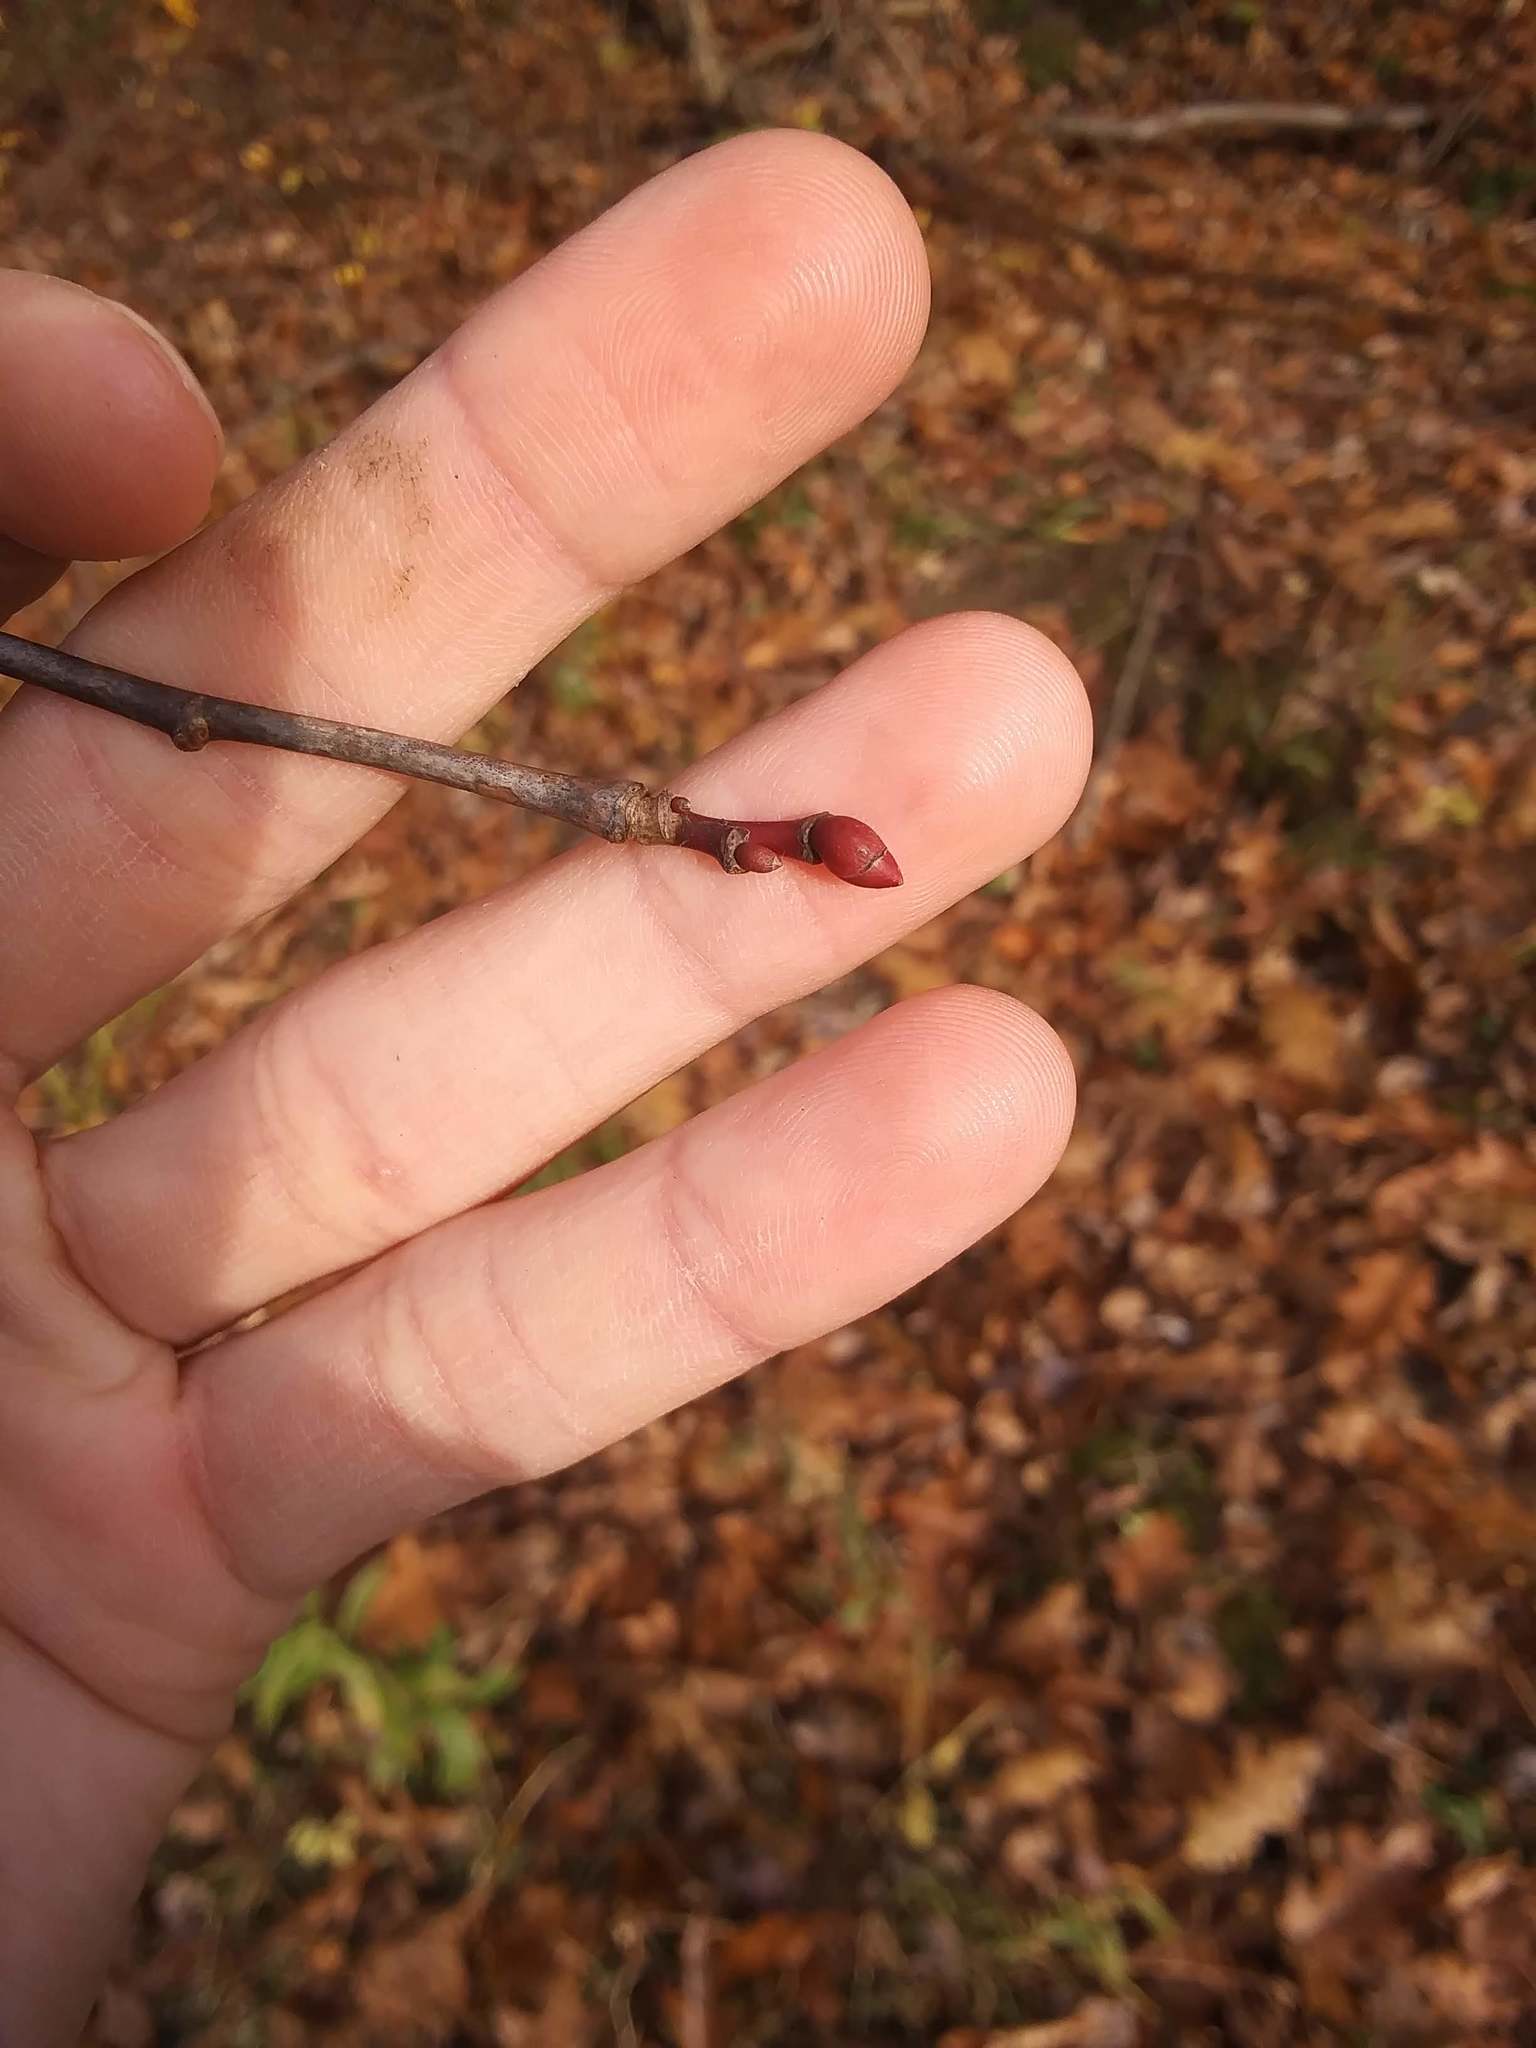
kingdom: Plantae
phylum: Tracheophyta
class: Magnoliopsida
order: Malvales
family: Malvaceae
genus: Tilia
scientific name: Tilia americana
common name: Basswood
